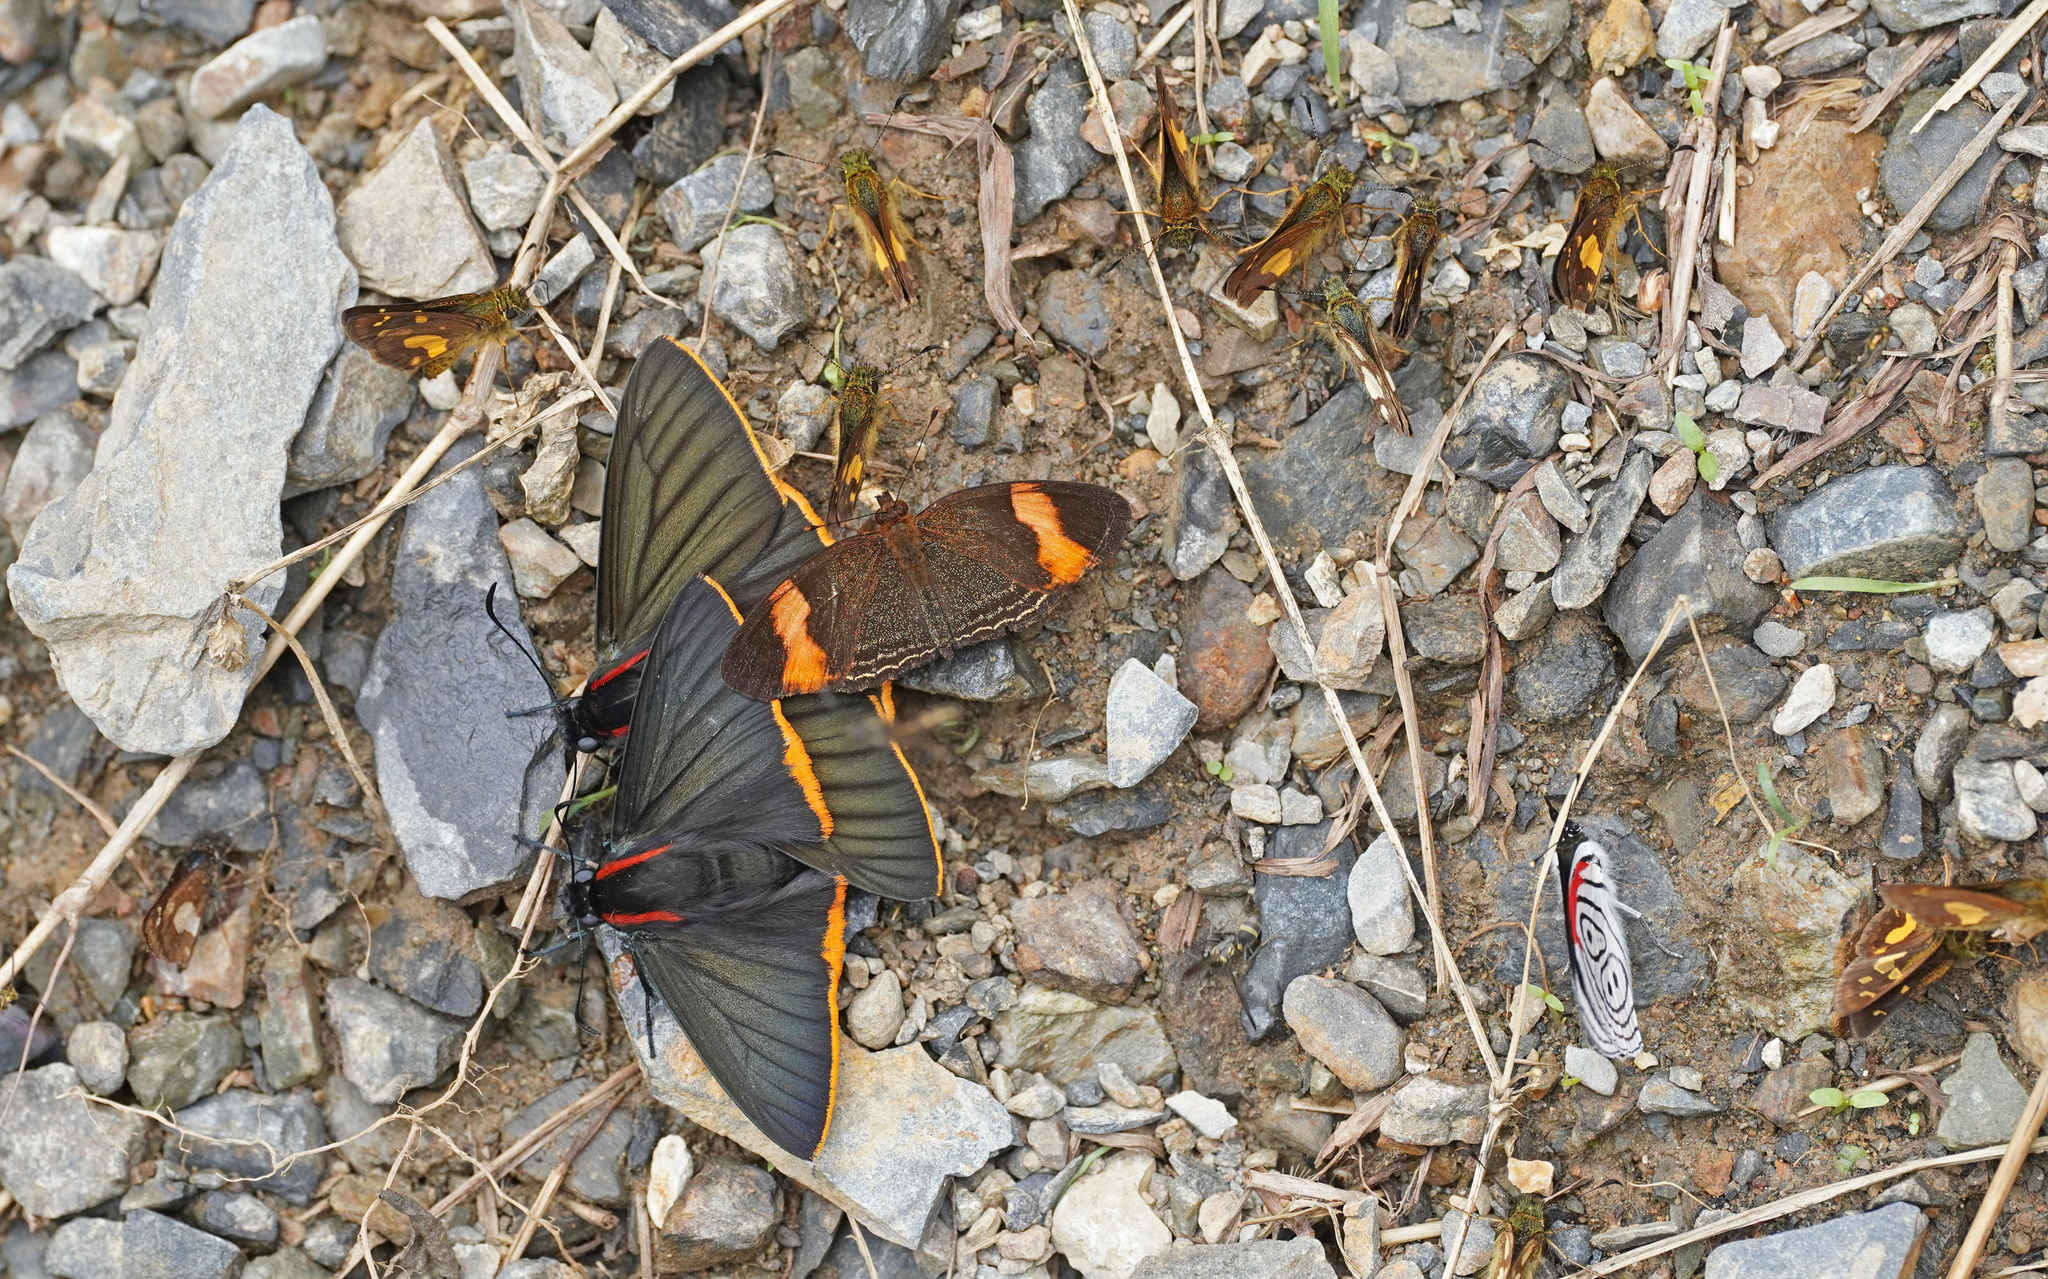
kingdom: Animalia
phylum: Arthropoda
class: Insecta
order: Lepidoptera
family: Nymphalidae
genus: Telenassa
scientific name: Telenassa jana
